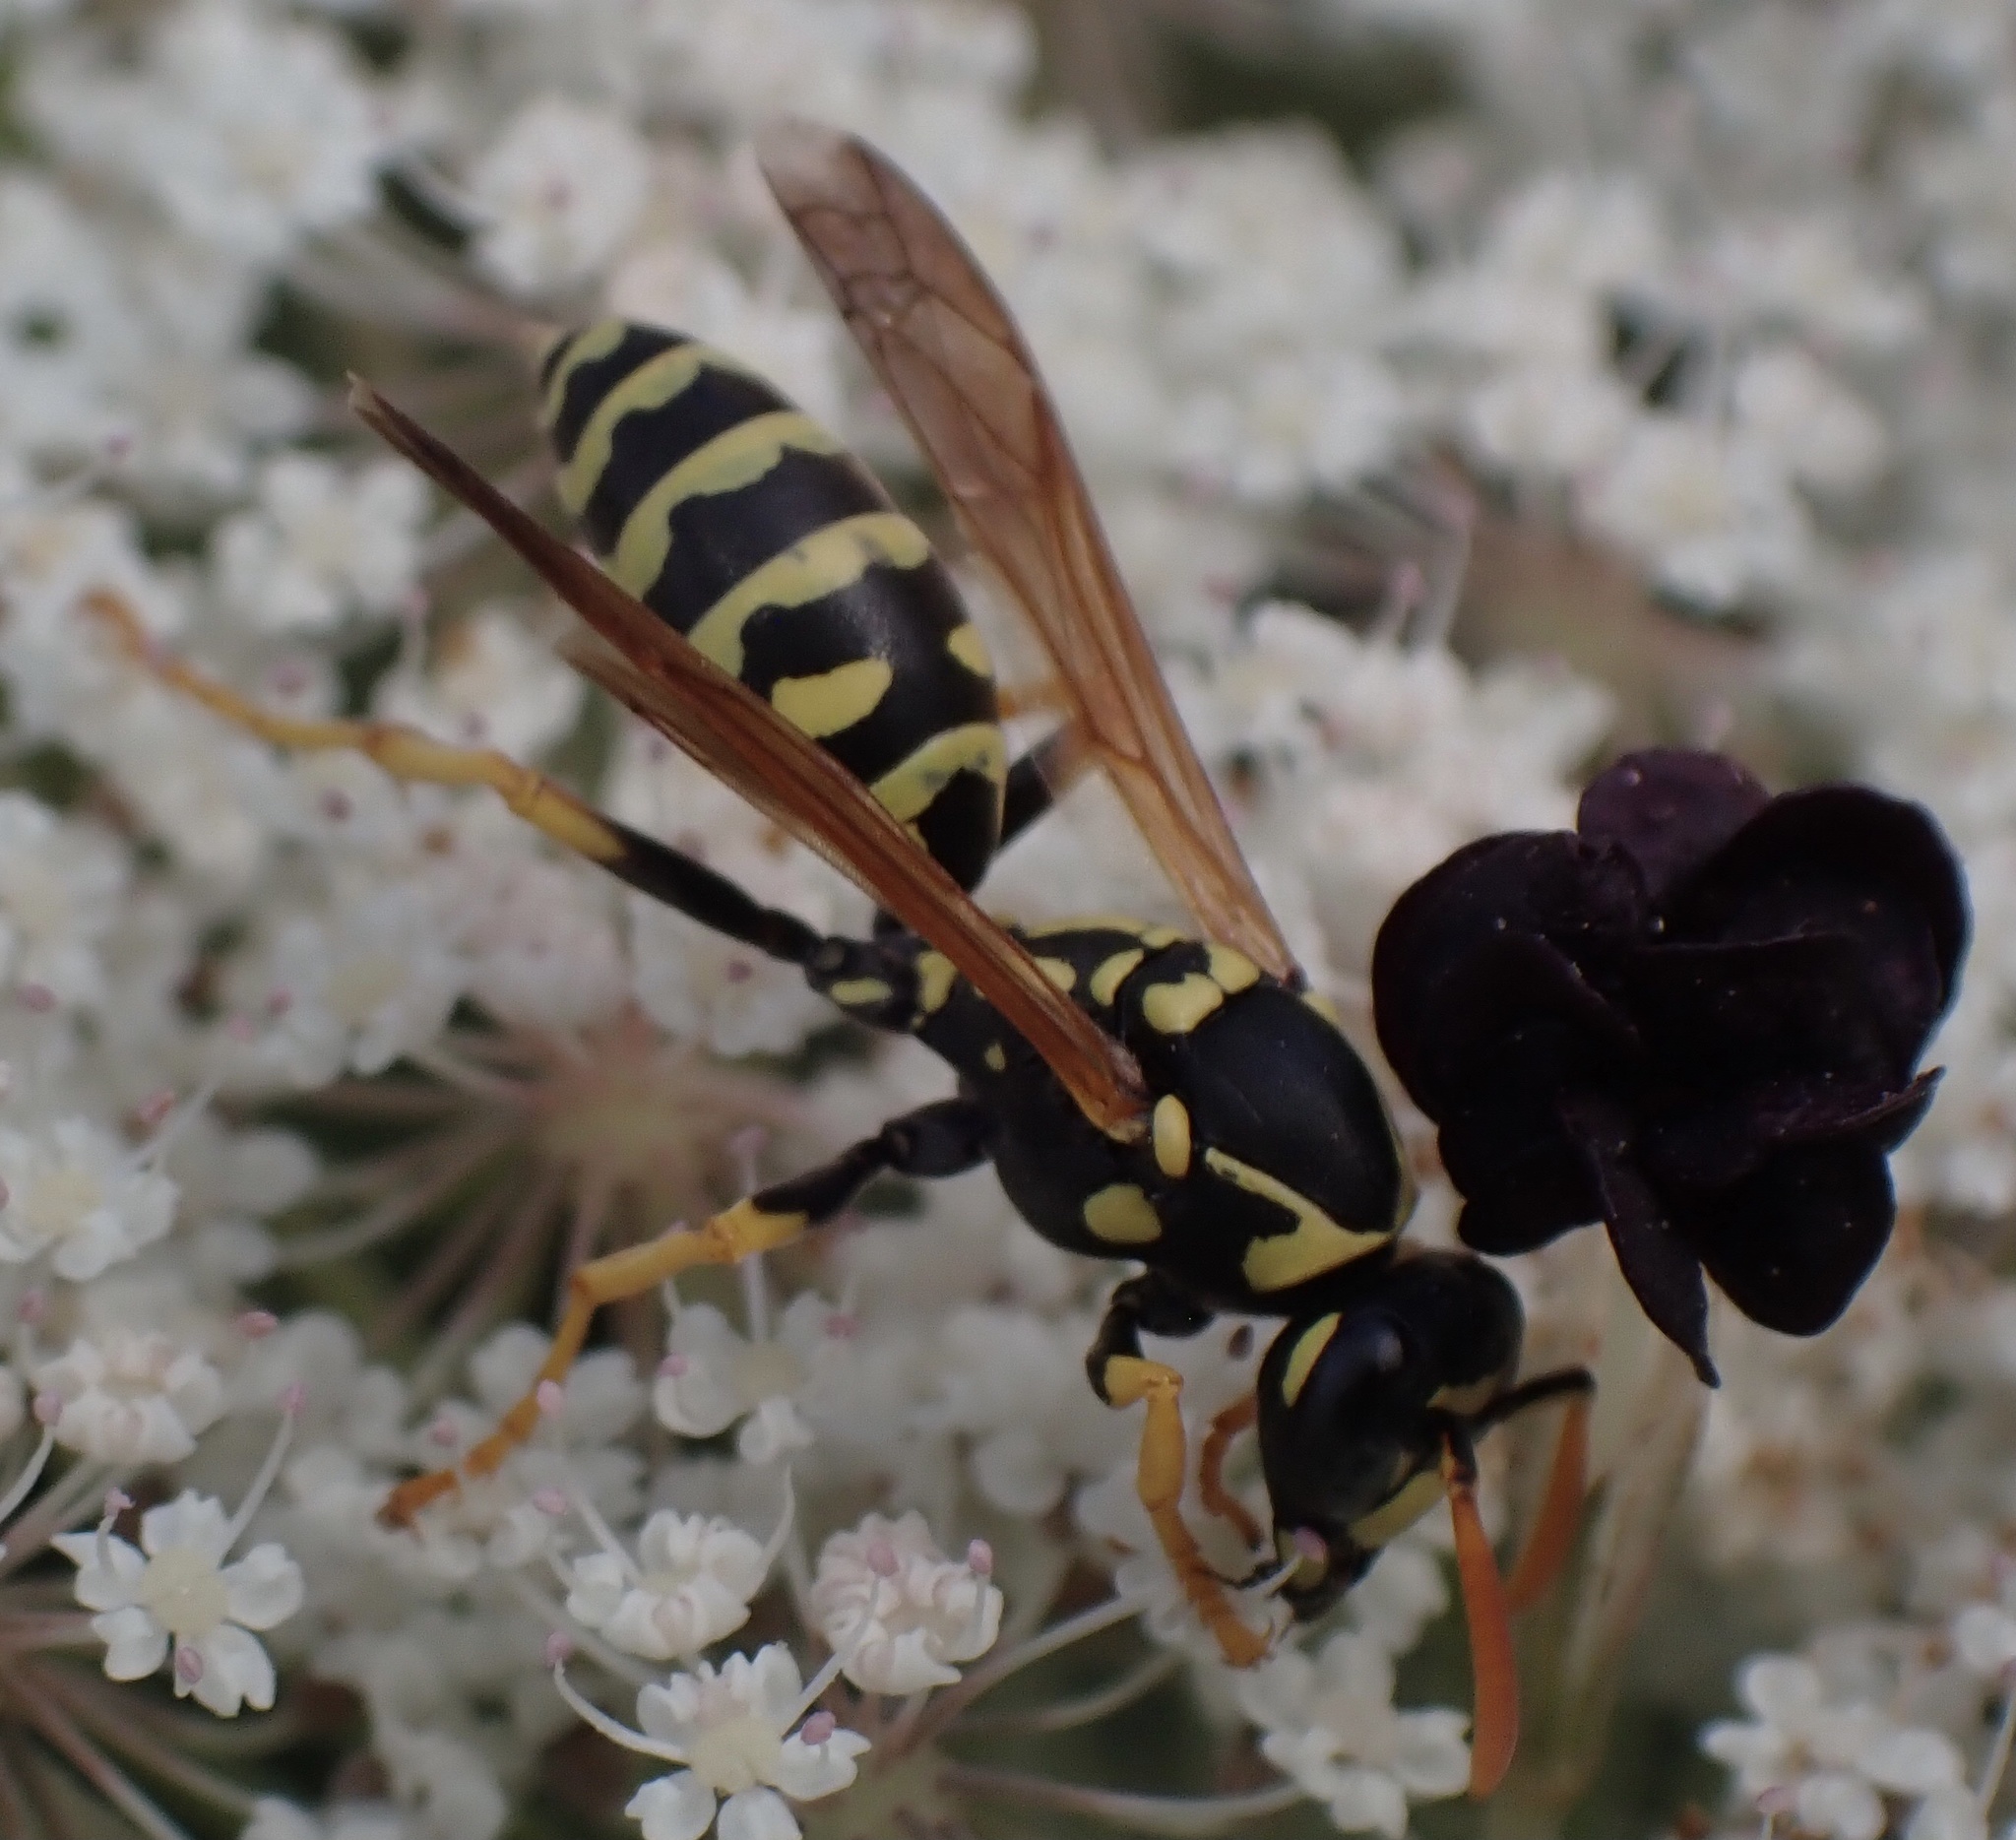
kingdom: Animalia
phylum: Arthropoda
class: Insecta
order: Hymenoptera
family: Eumenidae
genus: Polistes
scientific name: Polistes gallicus
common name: Paper wasp
